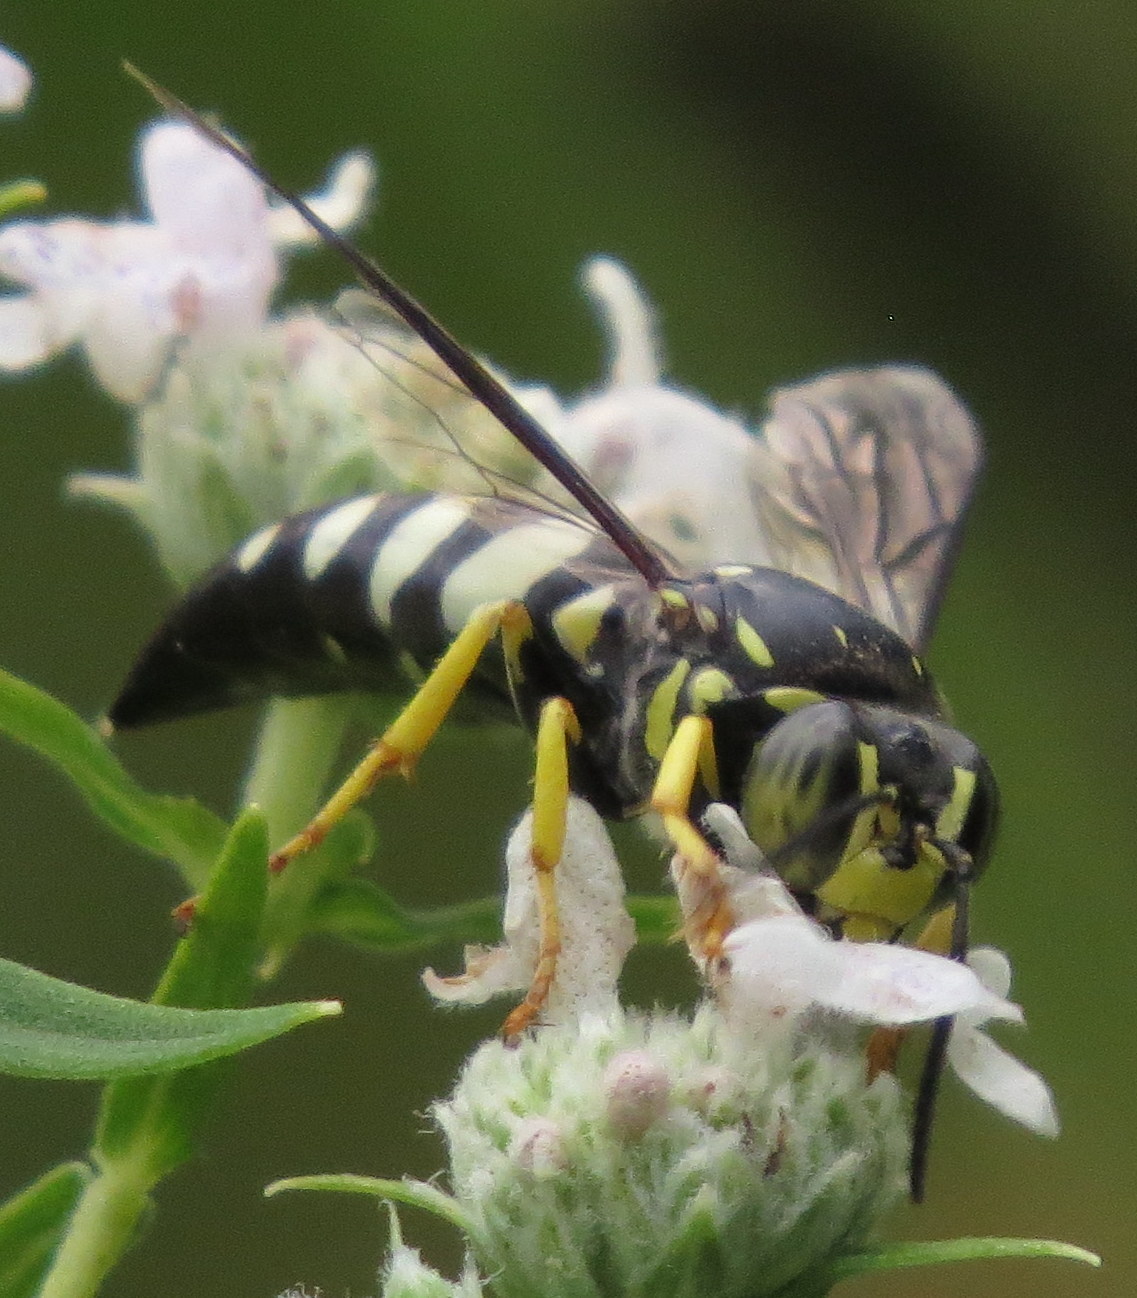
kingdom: Animalia
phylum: Arthropoda
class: Insecta
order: Hymenoptera
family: Crabronidae
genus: Bicyrtes
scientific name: Bicyrtes quadrifasciatus
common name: Four-banded stink bug hunter wasp
